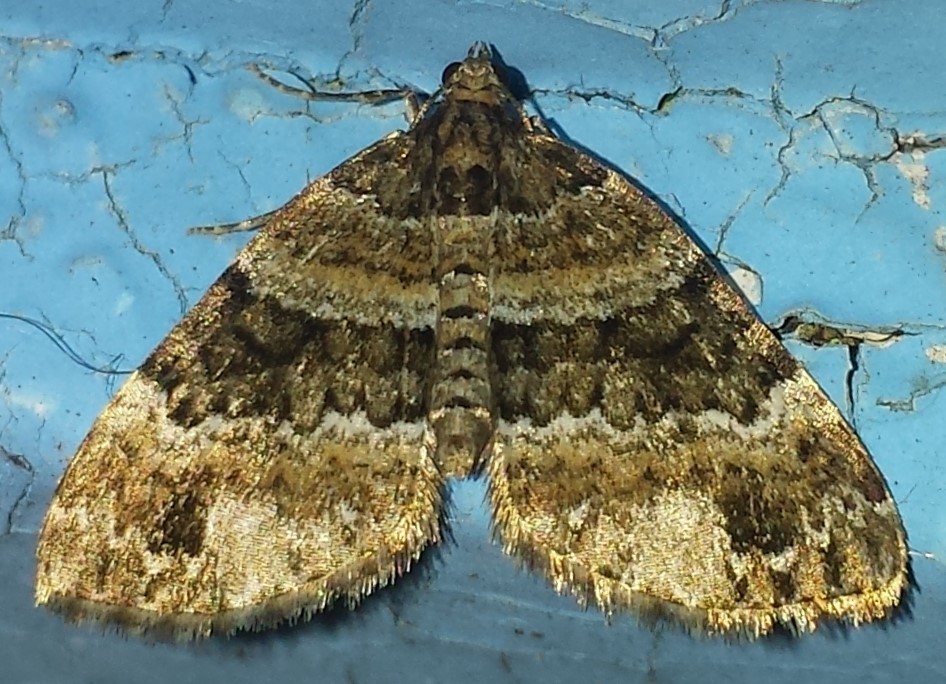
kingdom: Animalia
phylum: Arthropoda
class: Insecta
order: Lepidoptera
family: Geometridae
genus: Martania
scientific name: Martania
